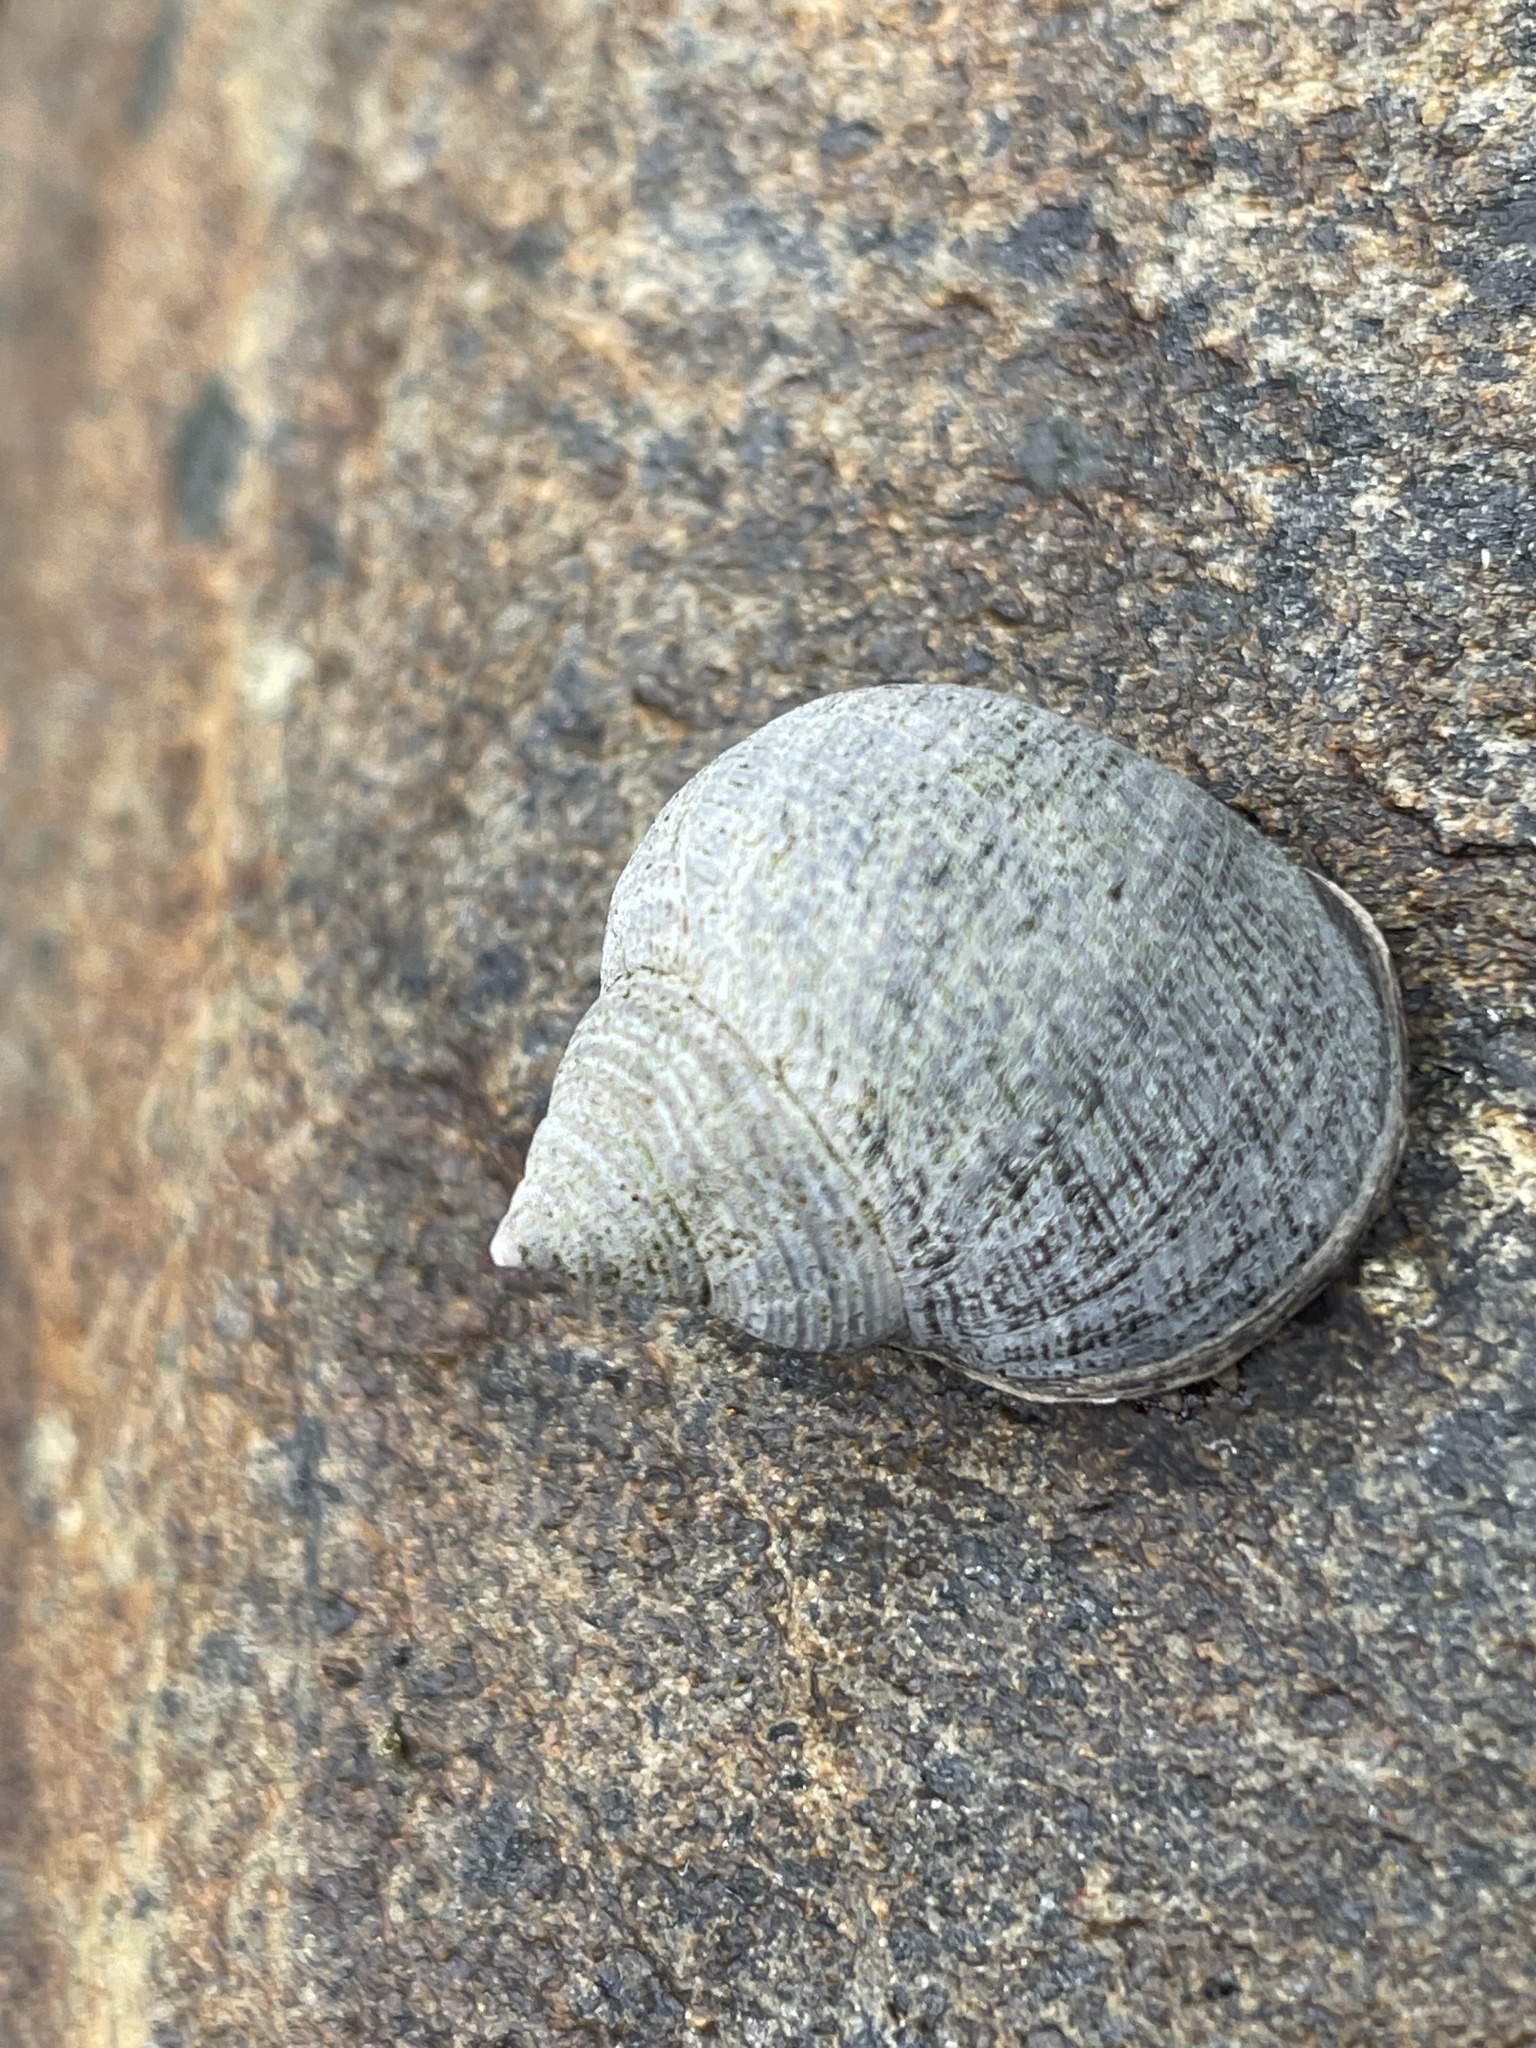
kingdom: Animalia
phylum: Mollusca
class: Gastropoda
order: Littorinimorpha
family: Littorinidae
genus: Littorina
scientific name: Littorina littorea
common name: Common periwinkle
